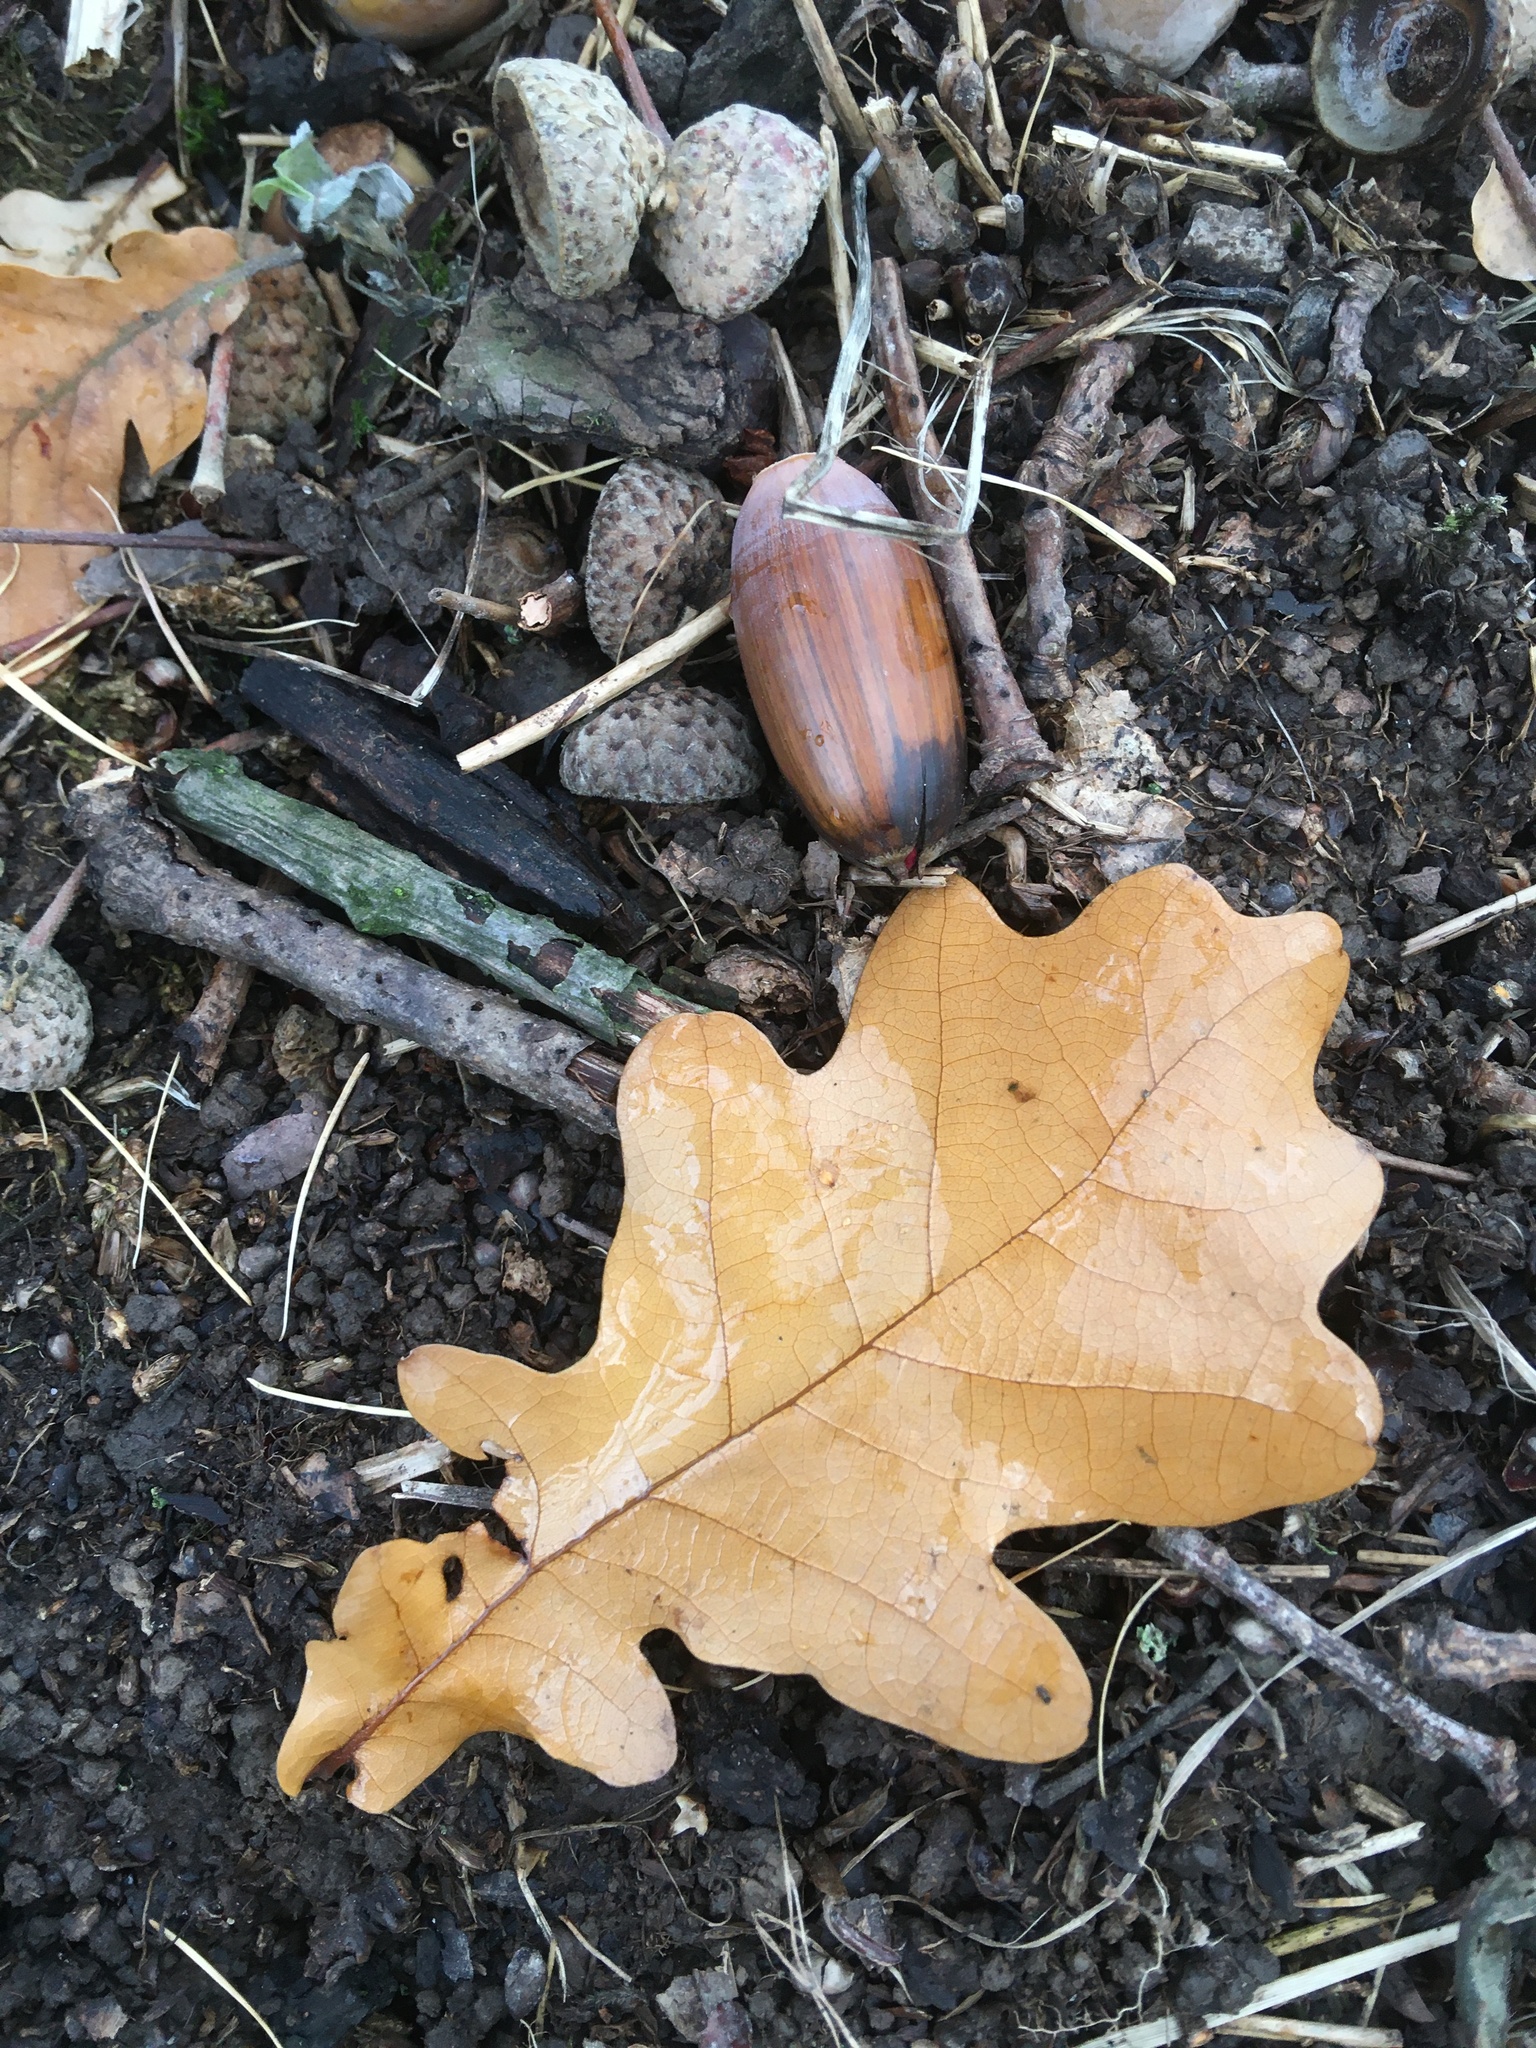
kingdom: Plantae
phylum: Tracheophyta
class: Magnoliopsida
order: Fagales
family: Fagaceae
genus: Quercus
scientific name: Quercus robur
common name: Pedunculate oak
